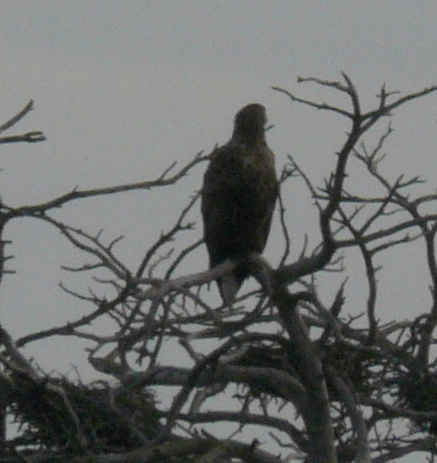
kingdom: Animalia
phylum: Chordata
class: Aves
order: Accipitriformes
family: Accipitridae
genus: Haliaeetus
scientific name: Haliaeetus albicilla
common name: White-tailed eagle
